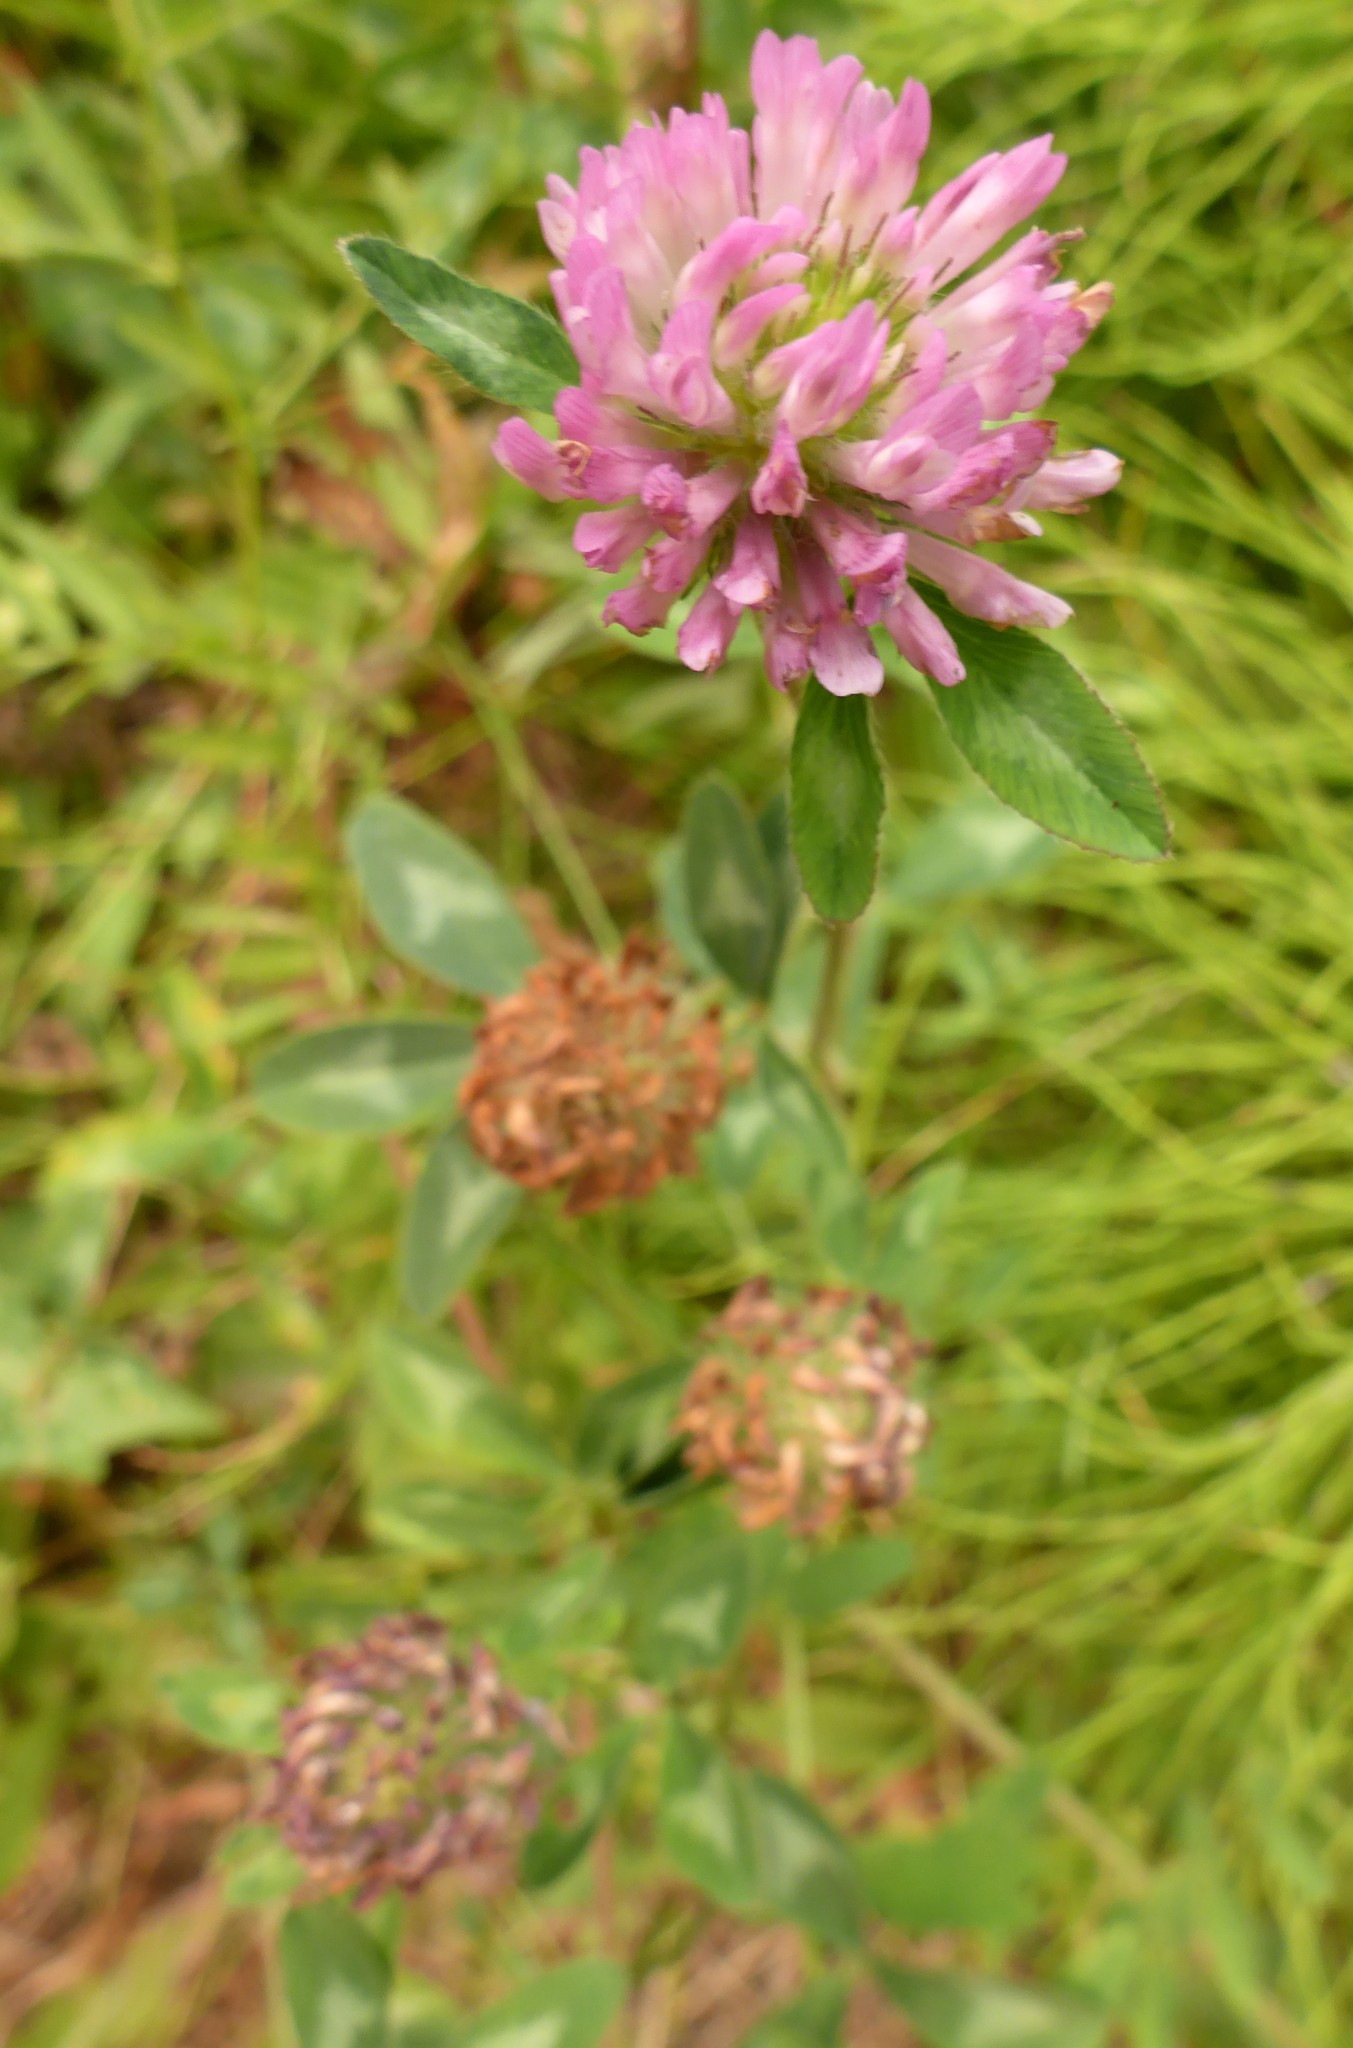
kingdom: Plantae
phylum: Tracheophyta
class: Magnoliopsida
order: Fabales
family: Fabaceae
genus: Trifolium
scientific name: Trifolium pratense
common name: Red clover
